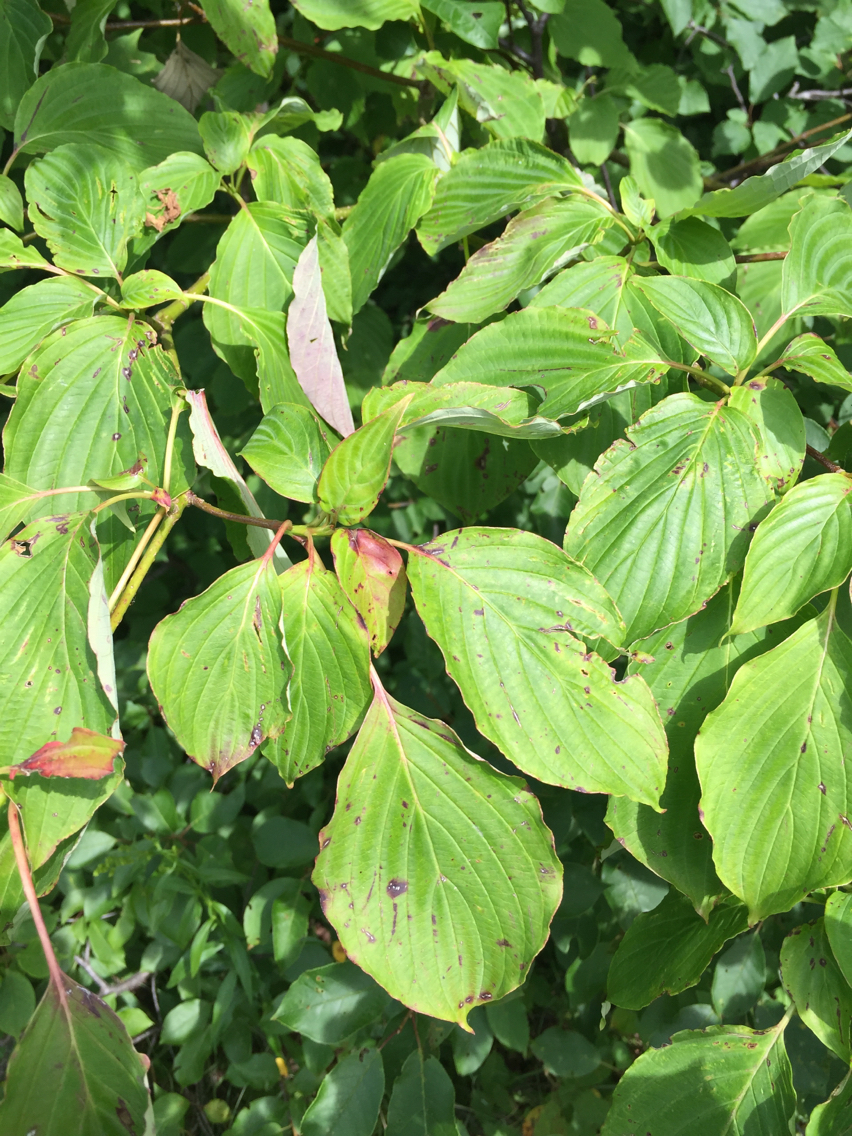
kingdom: Plantae
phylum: Tracheophyta
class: Magnoliopsida
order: Cornales
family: Cornaceae
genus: Cornus
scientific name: Cornus alternifolia
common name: Pagoda dogwood
